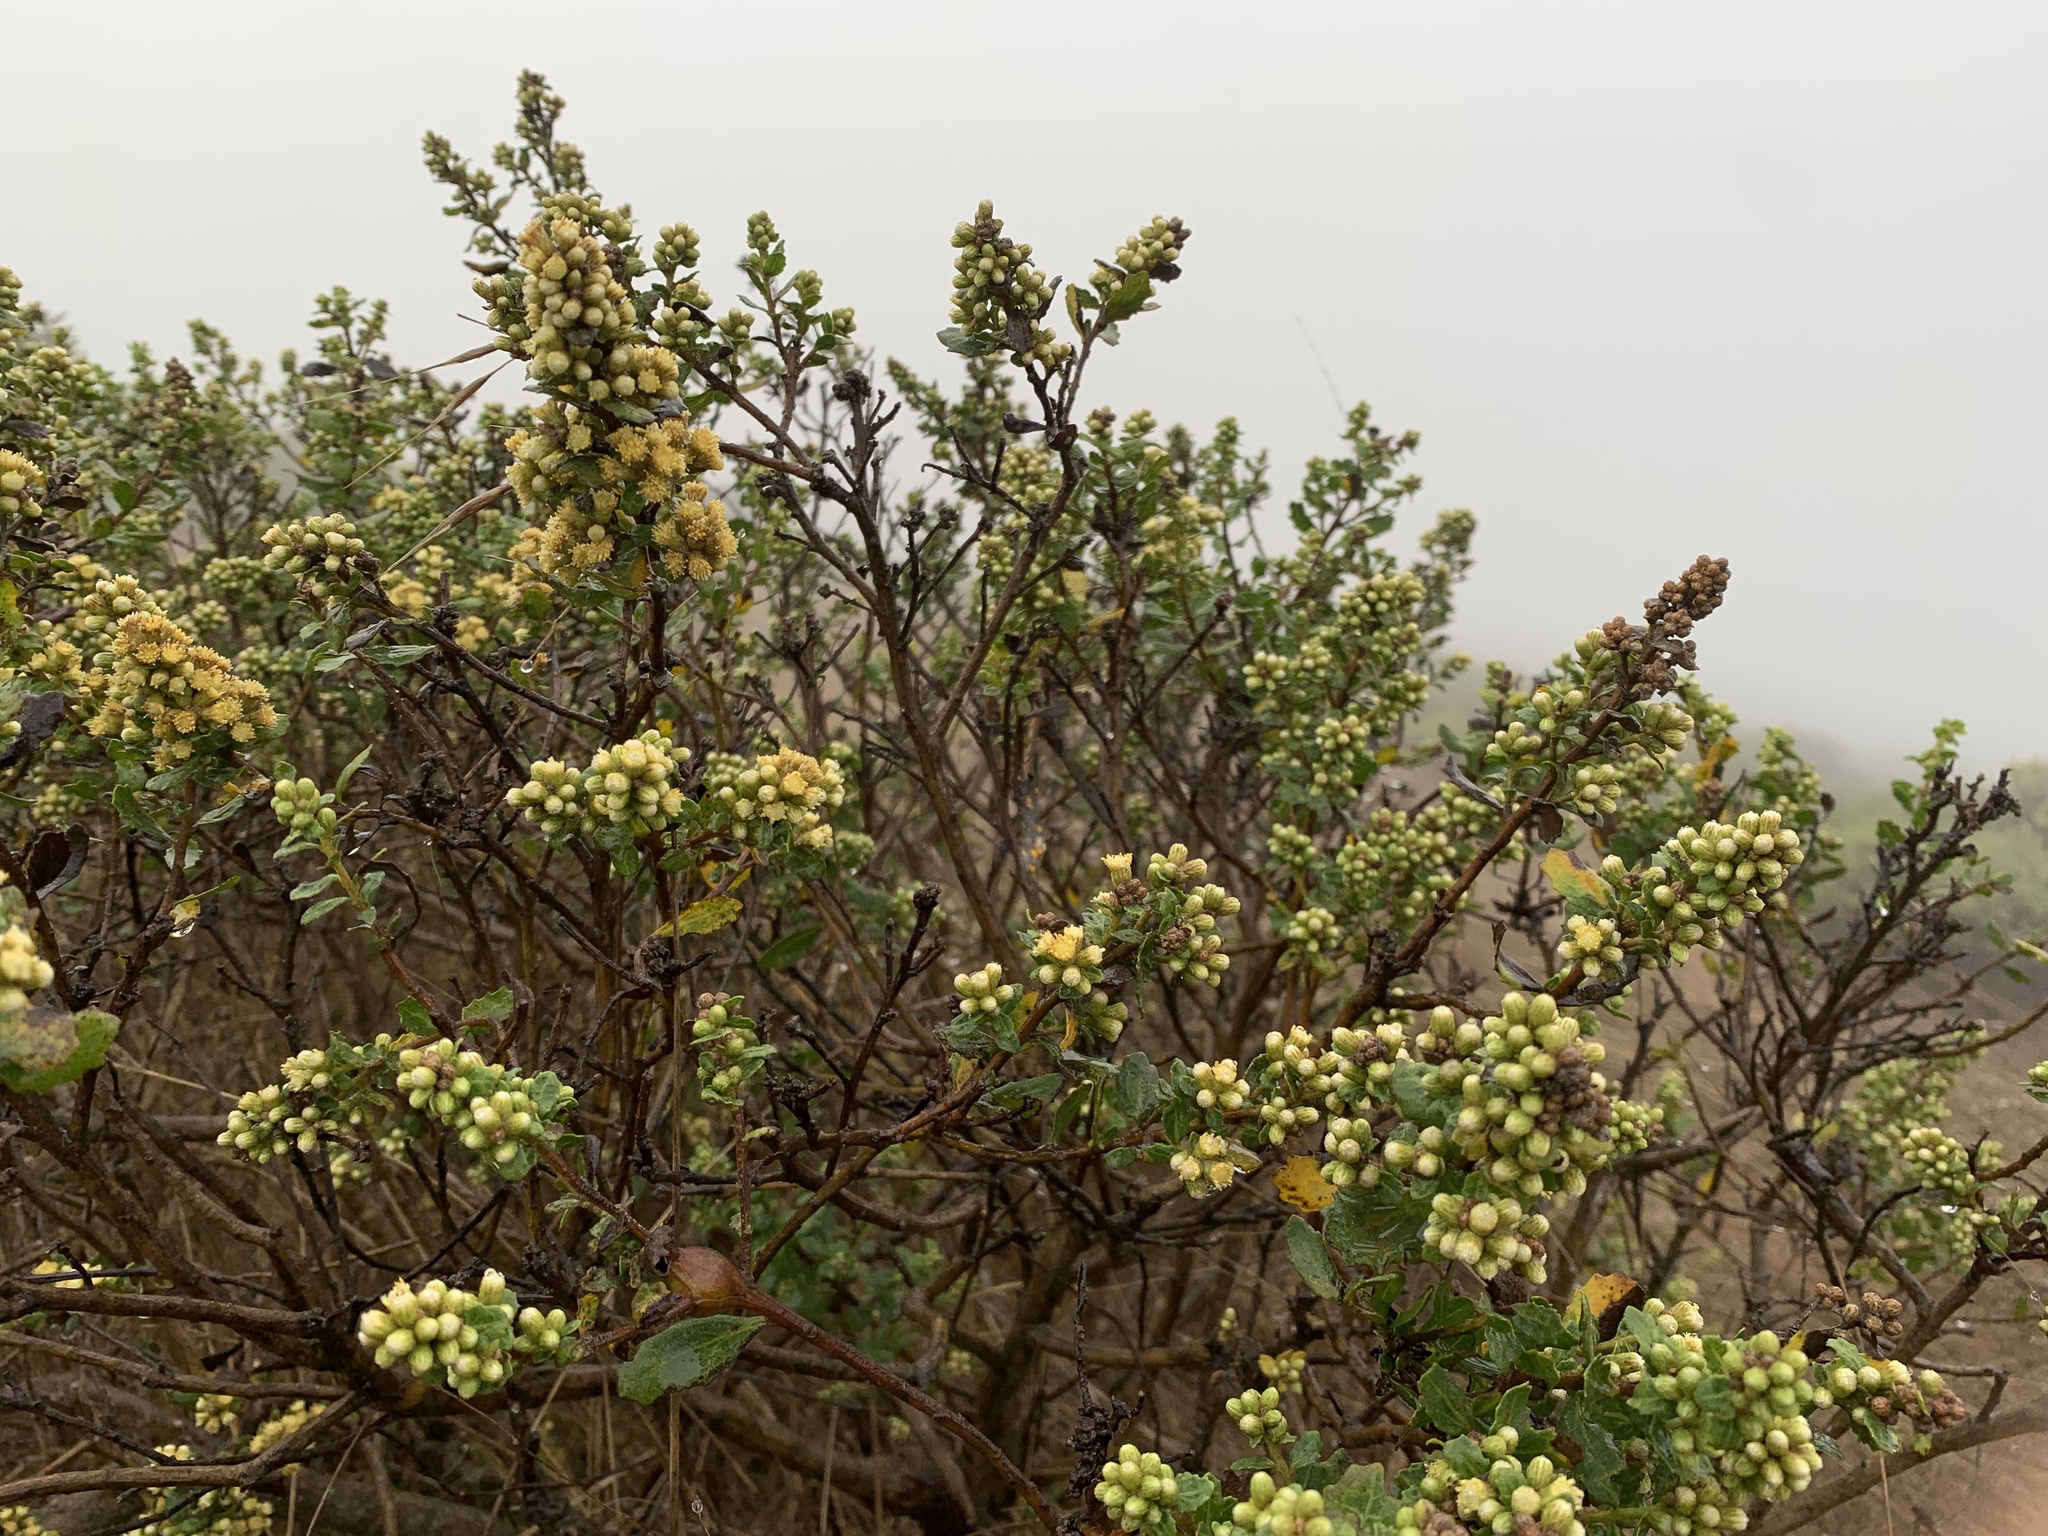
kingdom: Plantae
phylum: Tracheophyta
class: Magnoliopsida
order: Asterales
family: Asteraceae
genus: Baccharis
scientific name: Baccharis pilularis
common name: Coyotebrush
